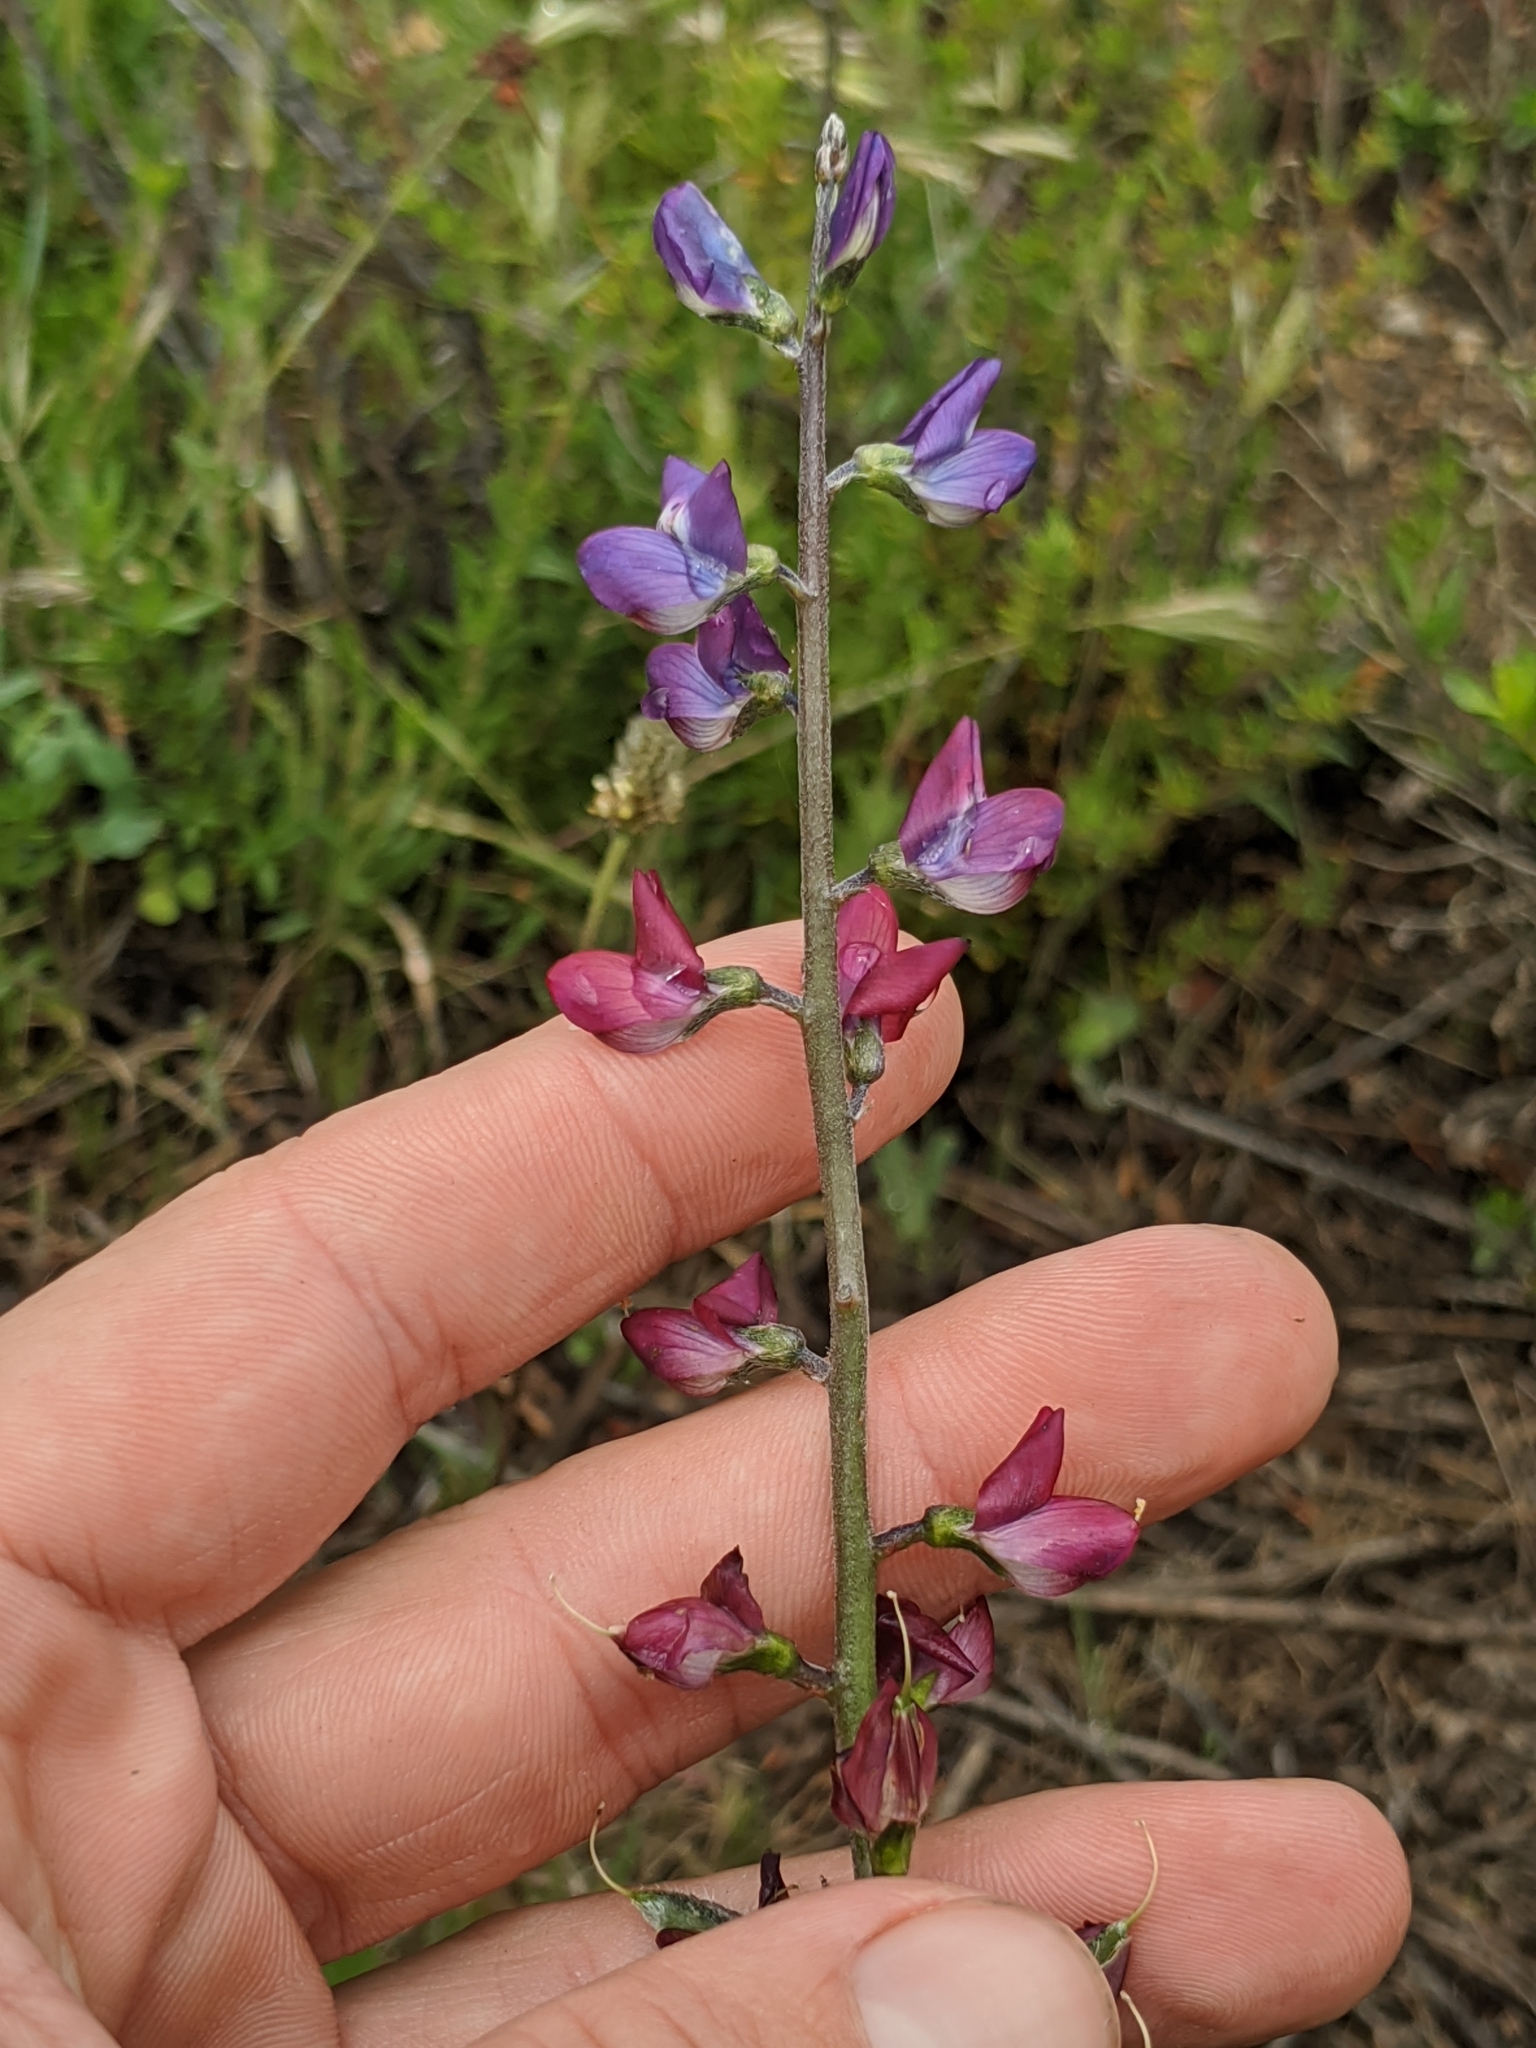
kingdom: Plantae
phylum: Tracheophyta
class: Magnoliopsida
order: Fabales
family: Fabaceae
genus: Lupinus
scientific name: Lupinus truncatus
